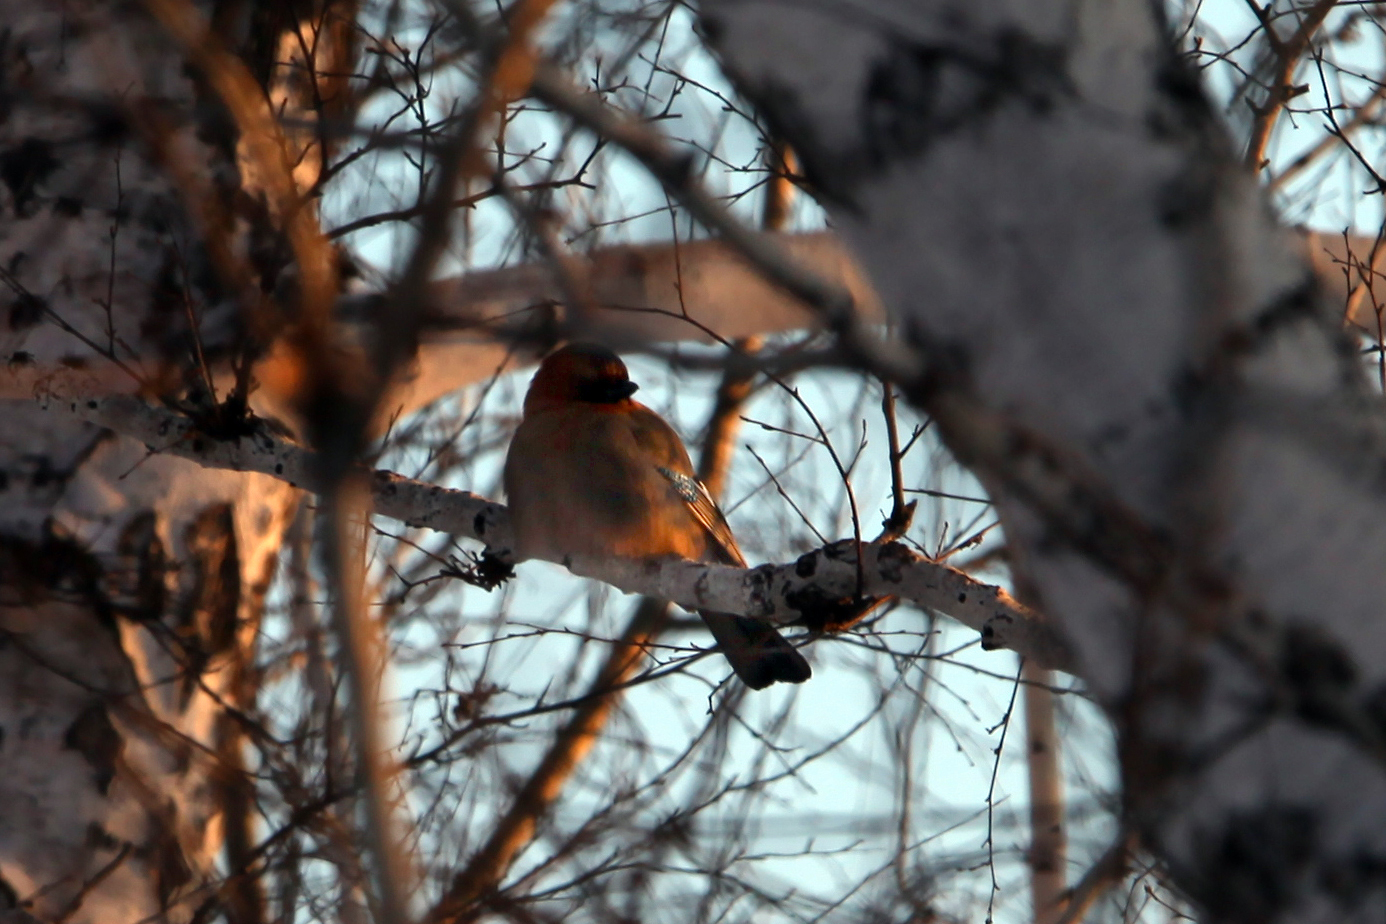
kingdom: Animalia
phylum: Chordata
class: Aves
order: Passeriformes
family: Corvidae
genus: Garrulus
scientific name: Garrulus glandarius
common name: Eurasian jay
